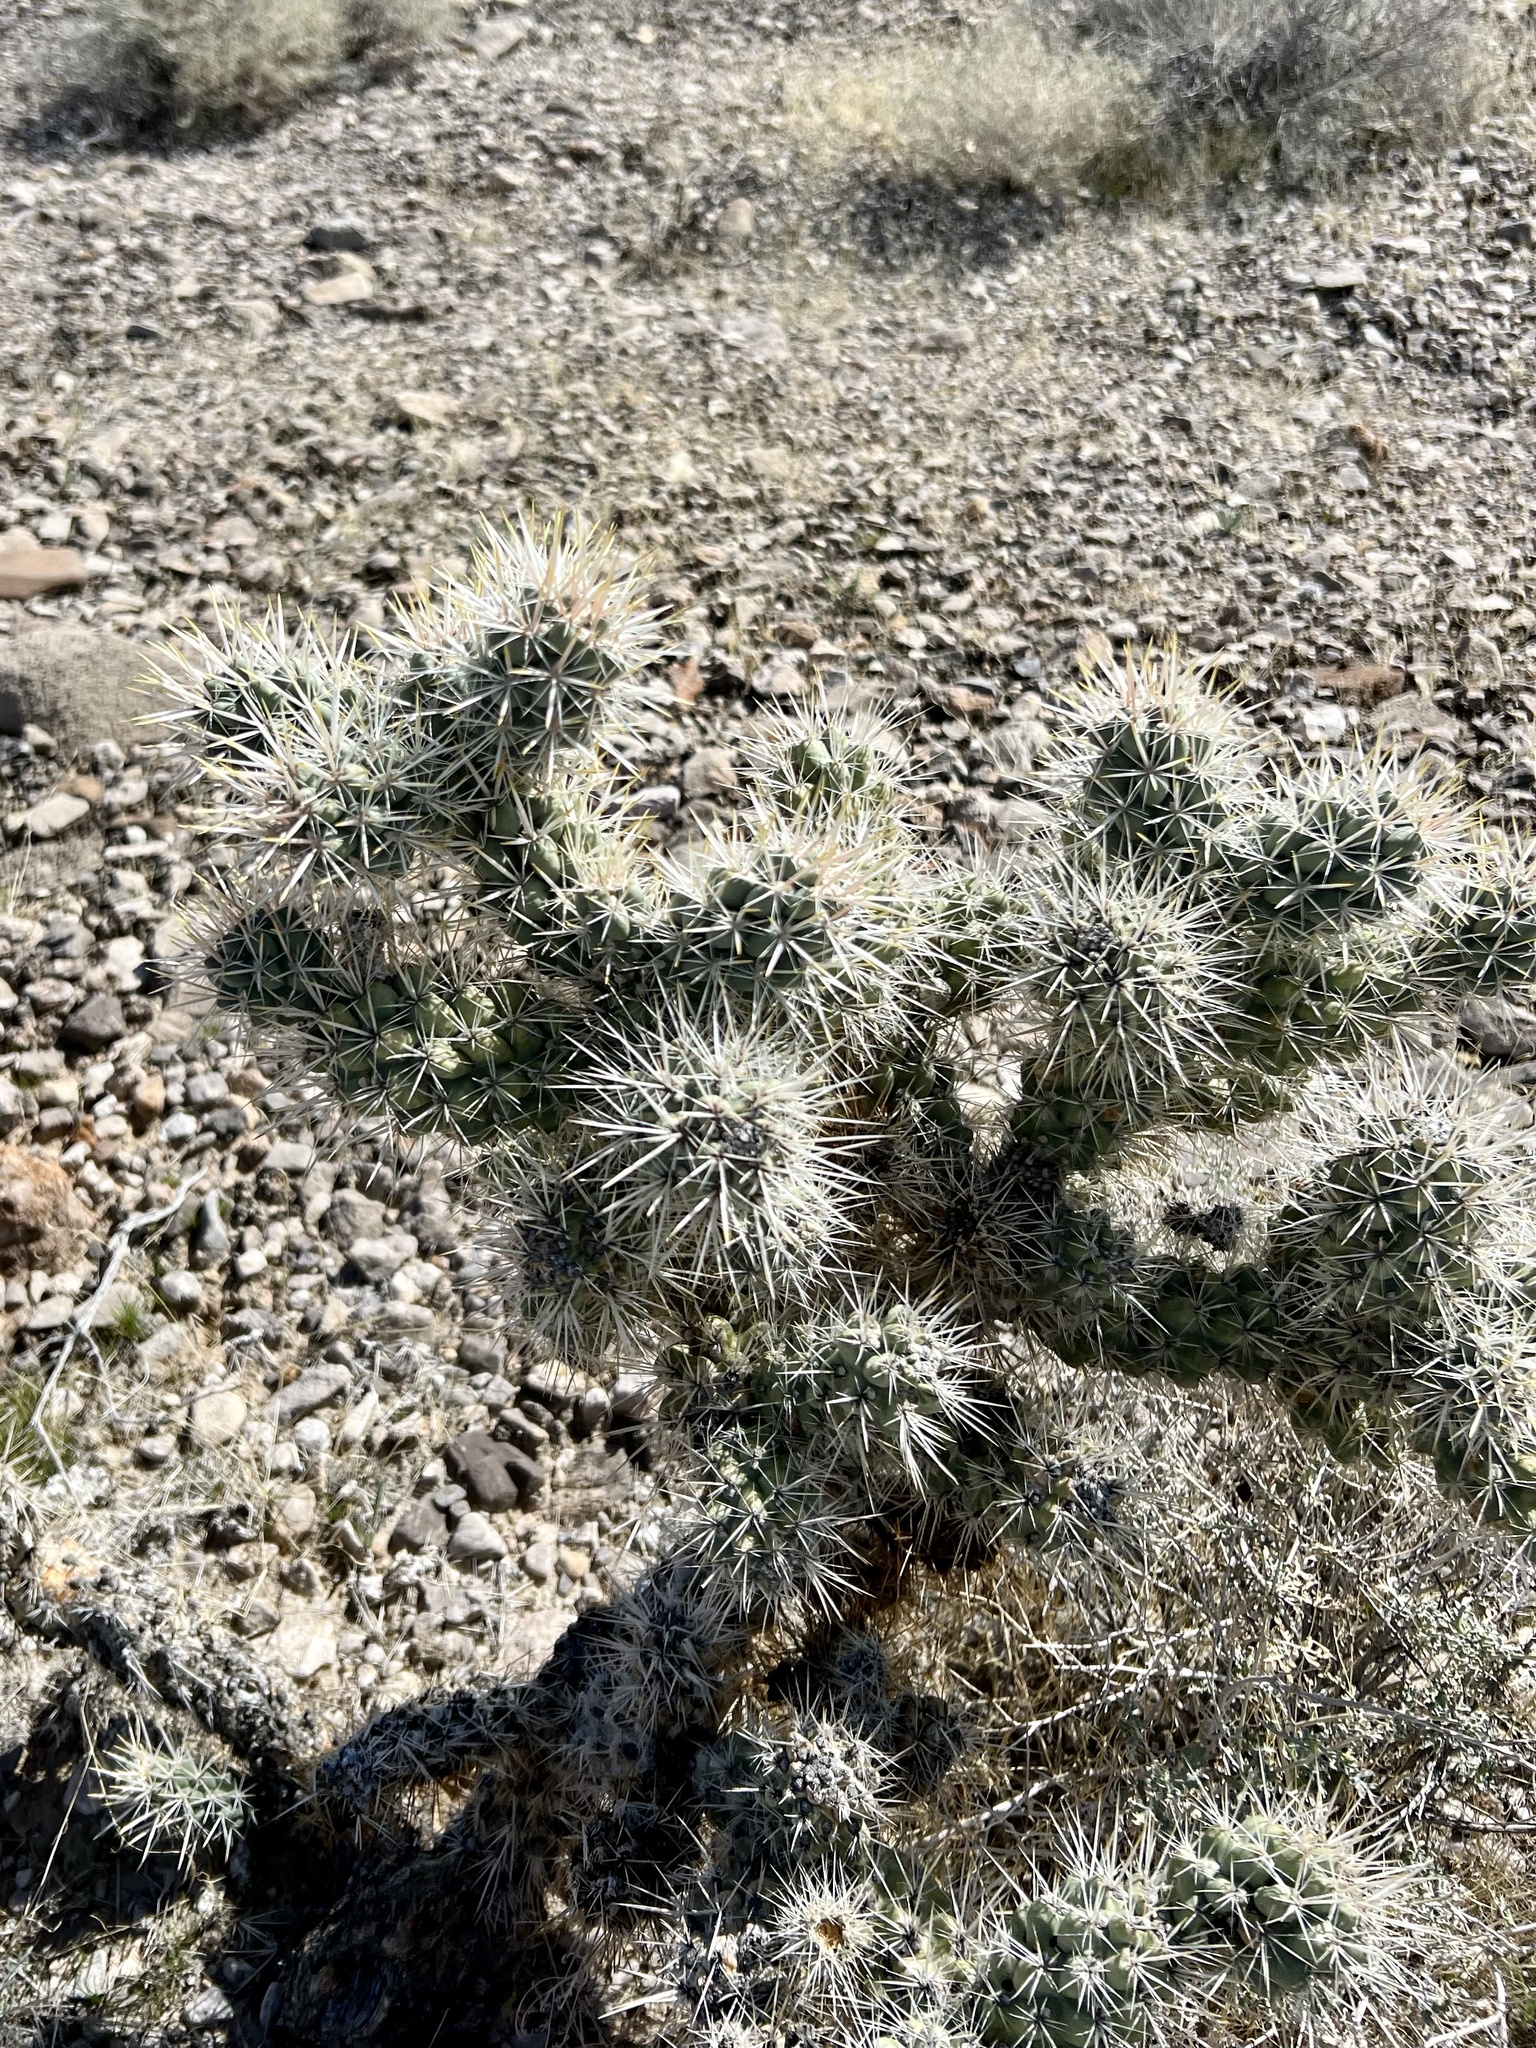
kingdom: Plantae
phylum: Tracheophyta
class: Magnoliopsida
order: Caryophyllales
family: Cactaceae
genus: Cylindropuntia
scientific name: Cylindropuntia echinocarpa
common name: Ground cholla
